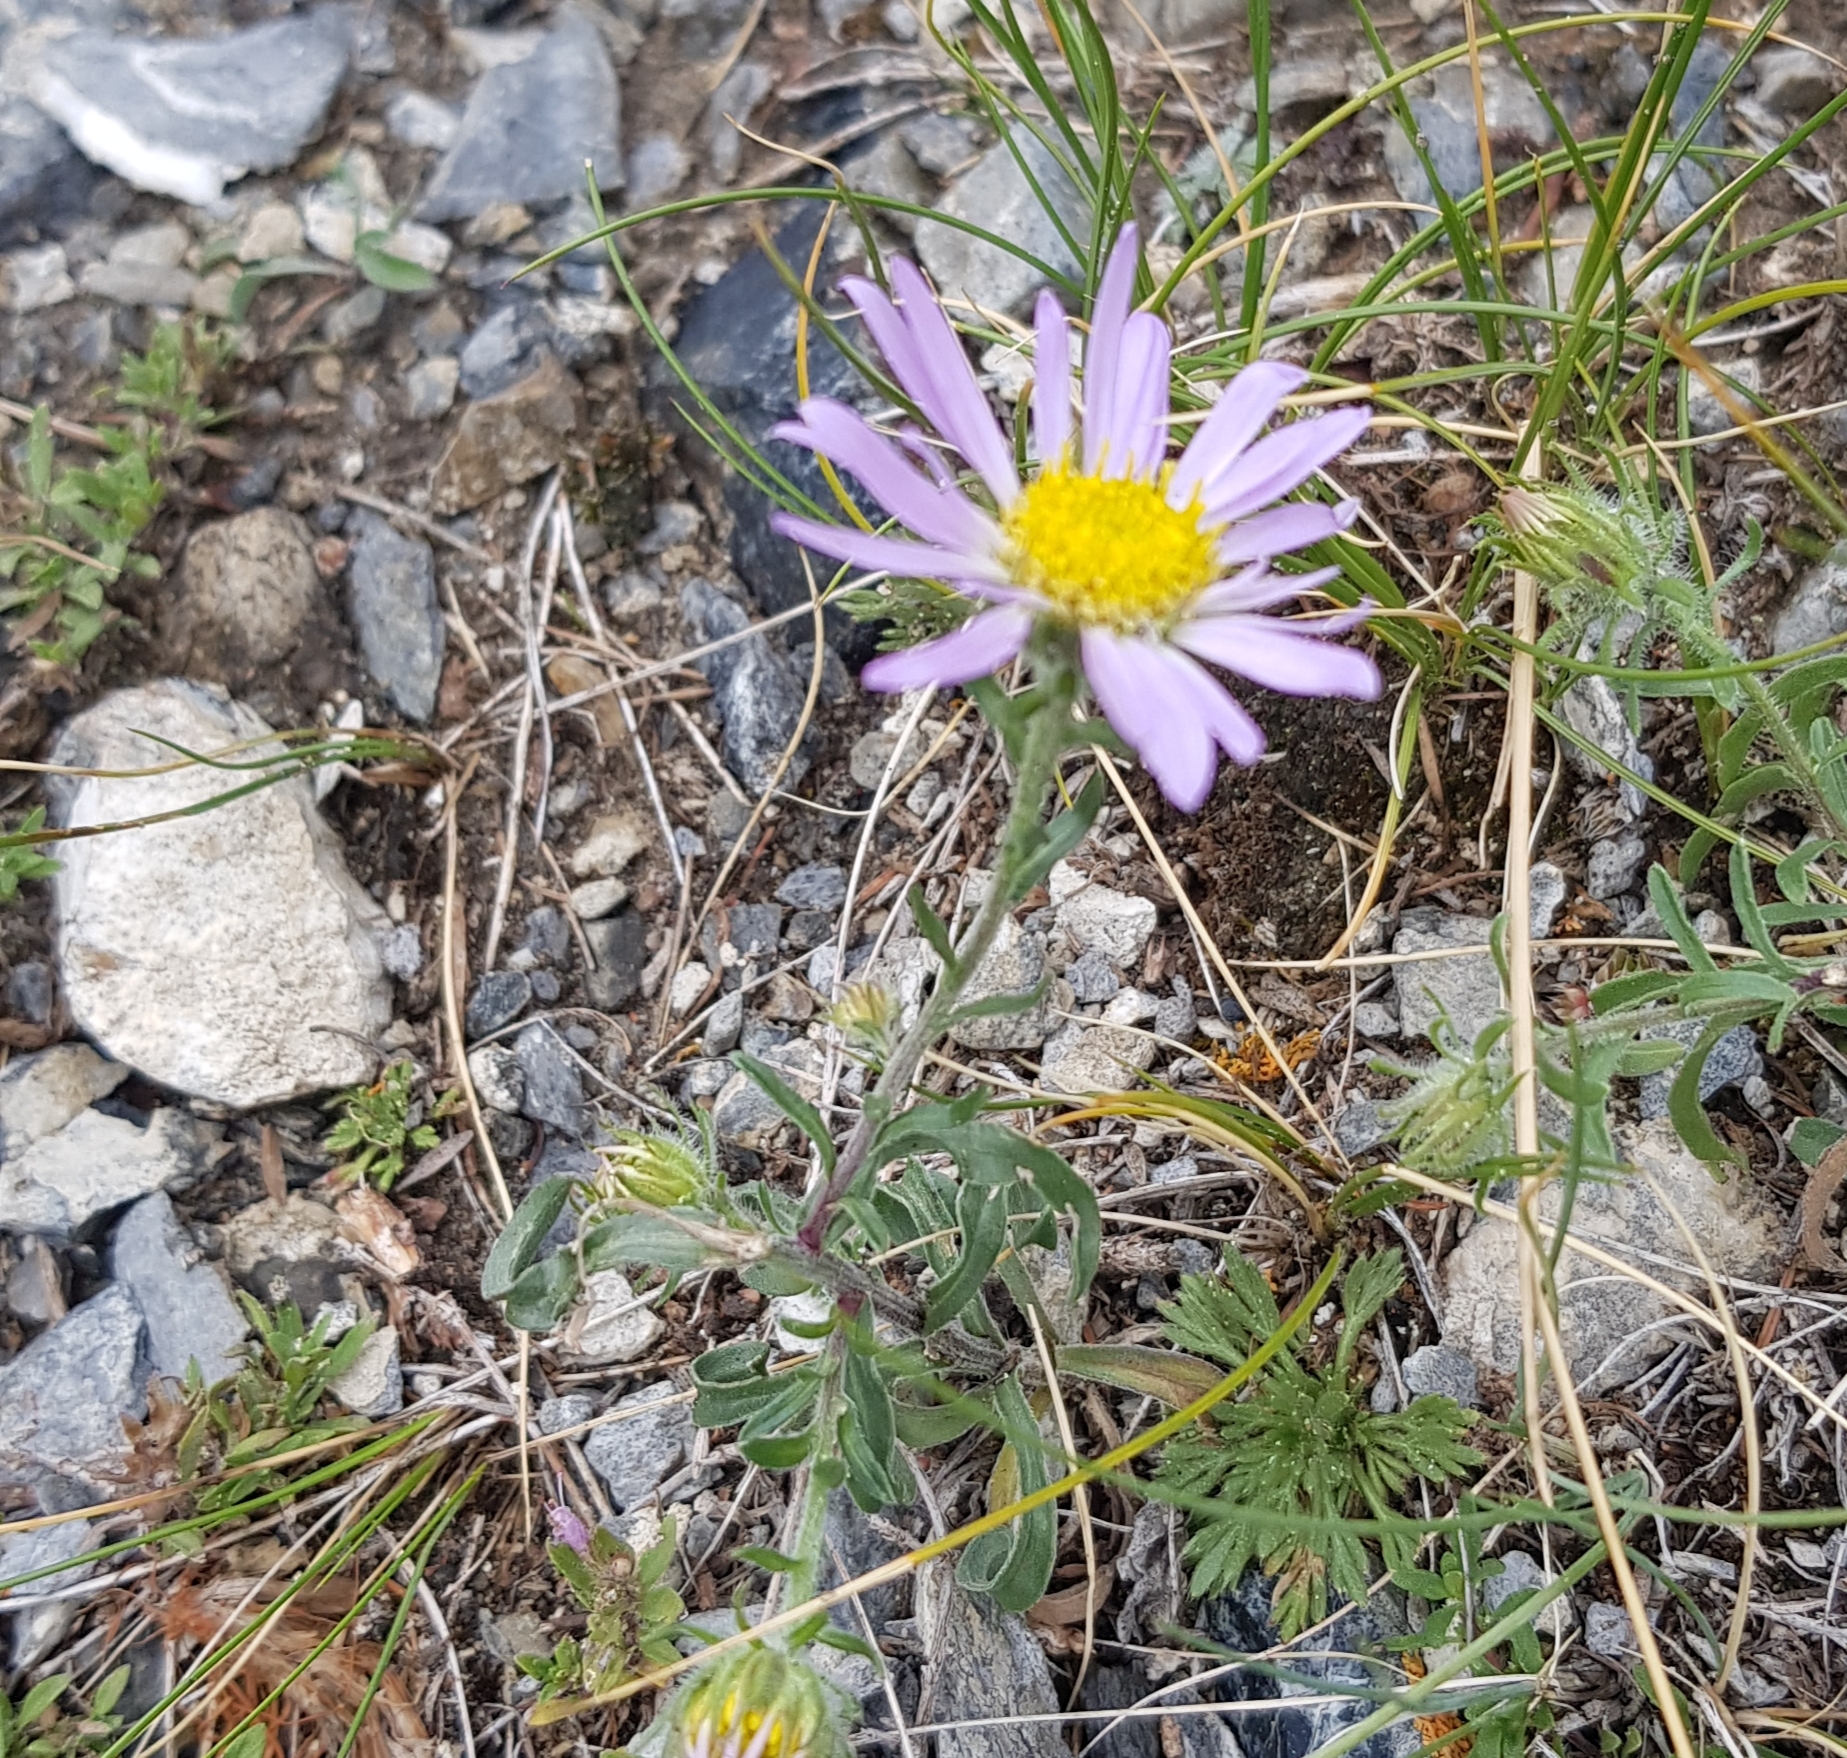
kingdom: Plantae
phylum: Tracheophyta
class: Magnoliopsida
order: Asterales
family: Asteraceae
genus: Aster
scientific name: Aster alpinus
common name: Alpine aster
